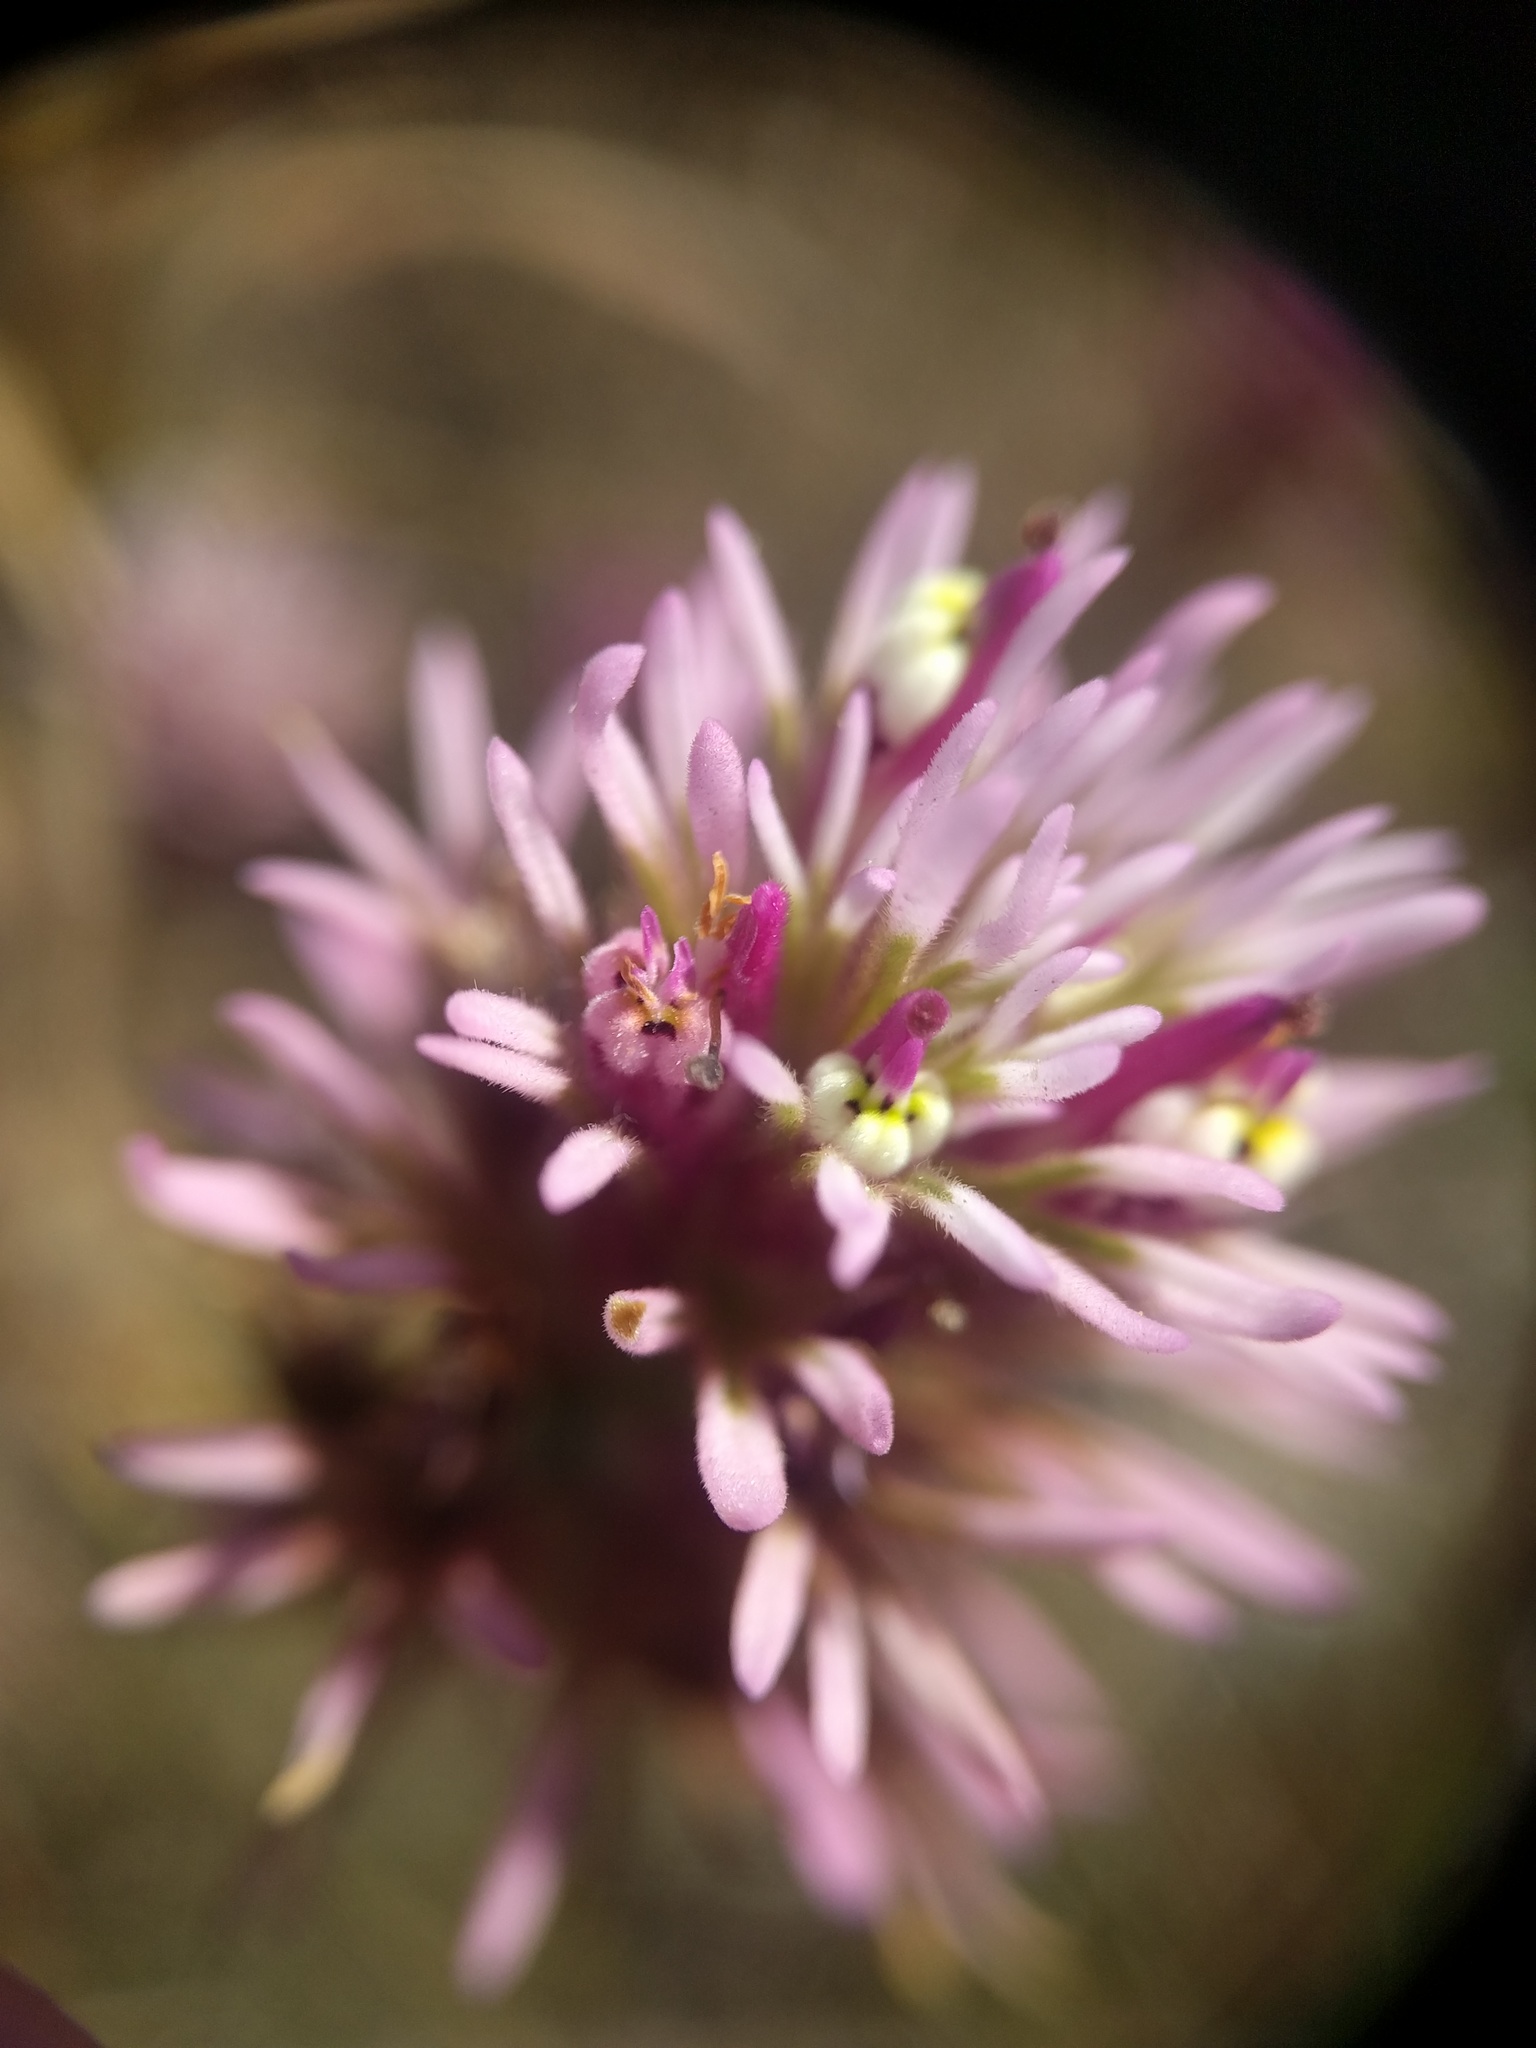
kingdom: Plantae
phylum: Tracheophyta
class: Magnoliopsida
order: Lamiales
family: Orobanchaceae
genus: Castilleja
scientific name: Castilleja densiflora
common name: Dense-flower indian paintbrush
